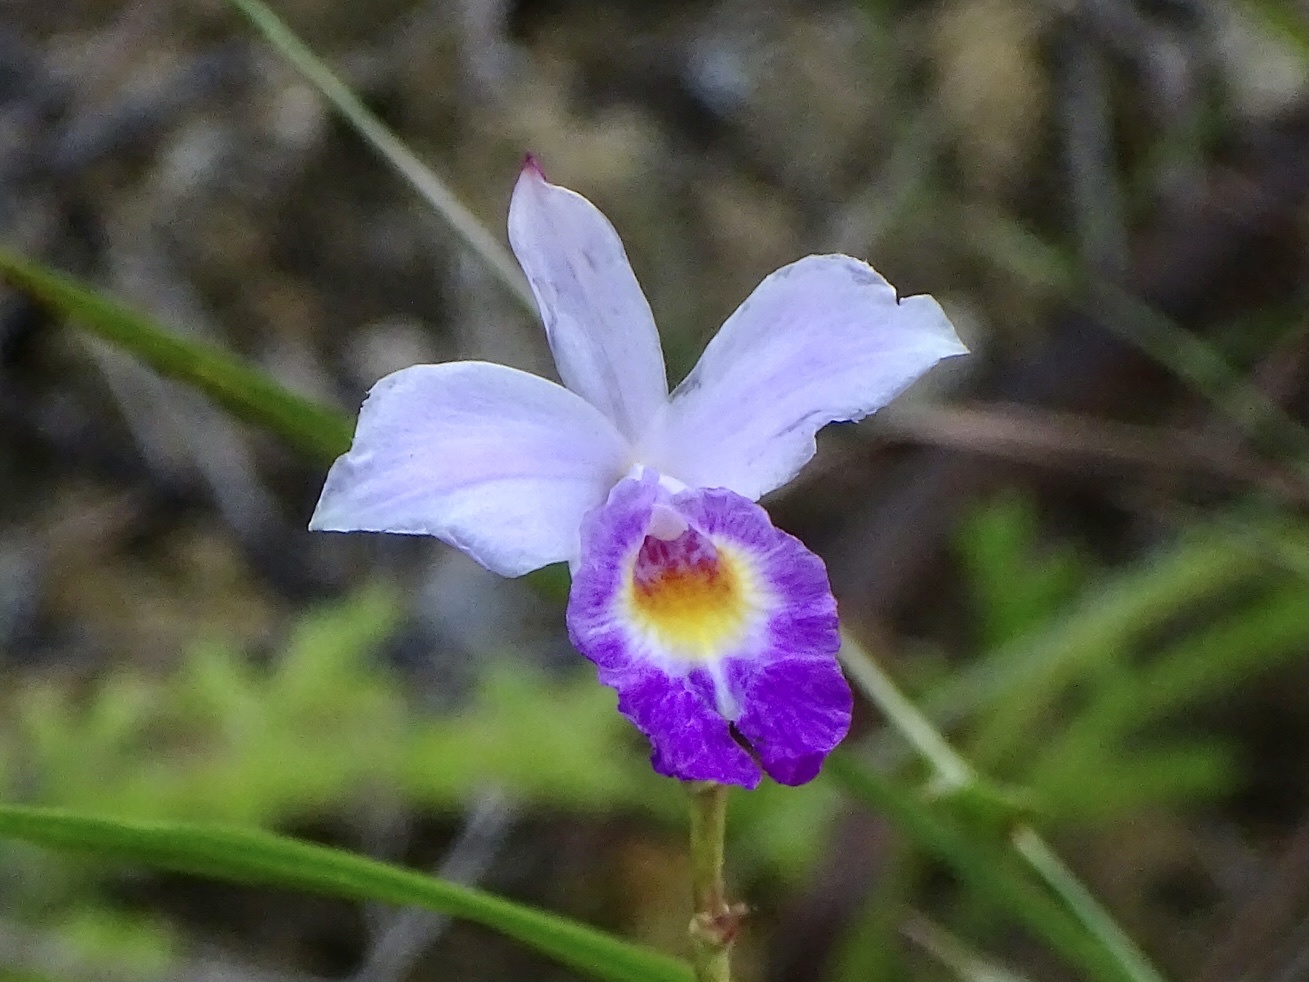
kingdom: Plantae
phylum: Tracheophyta
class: Liliopsida
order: Asparagales
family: Orchidaceae
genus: Arundina
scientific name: Arundina graminifolia
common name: Bamboo orchid
